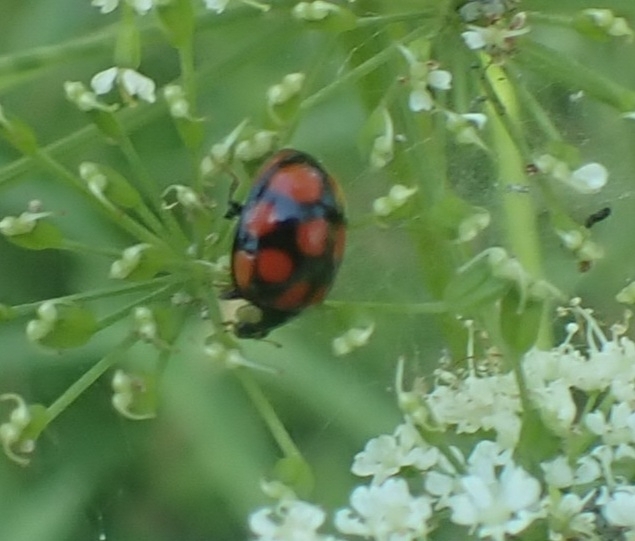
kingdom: Animalia
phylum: Arthropoda
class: Insecta
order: Coleoptera
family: Coccinellidae
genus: Harmonia
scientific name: Harmonia axyridis
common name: Harlequin ladybird
